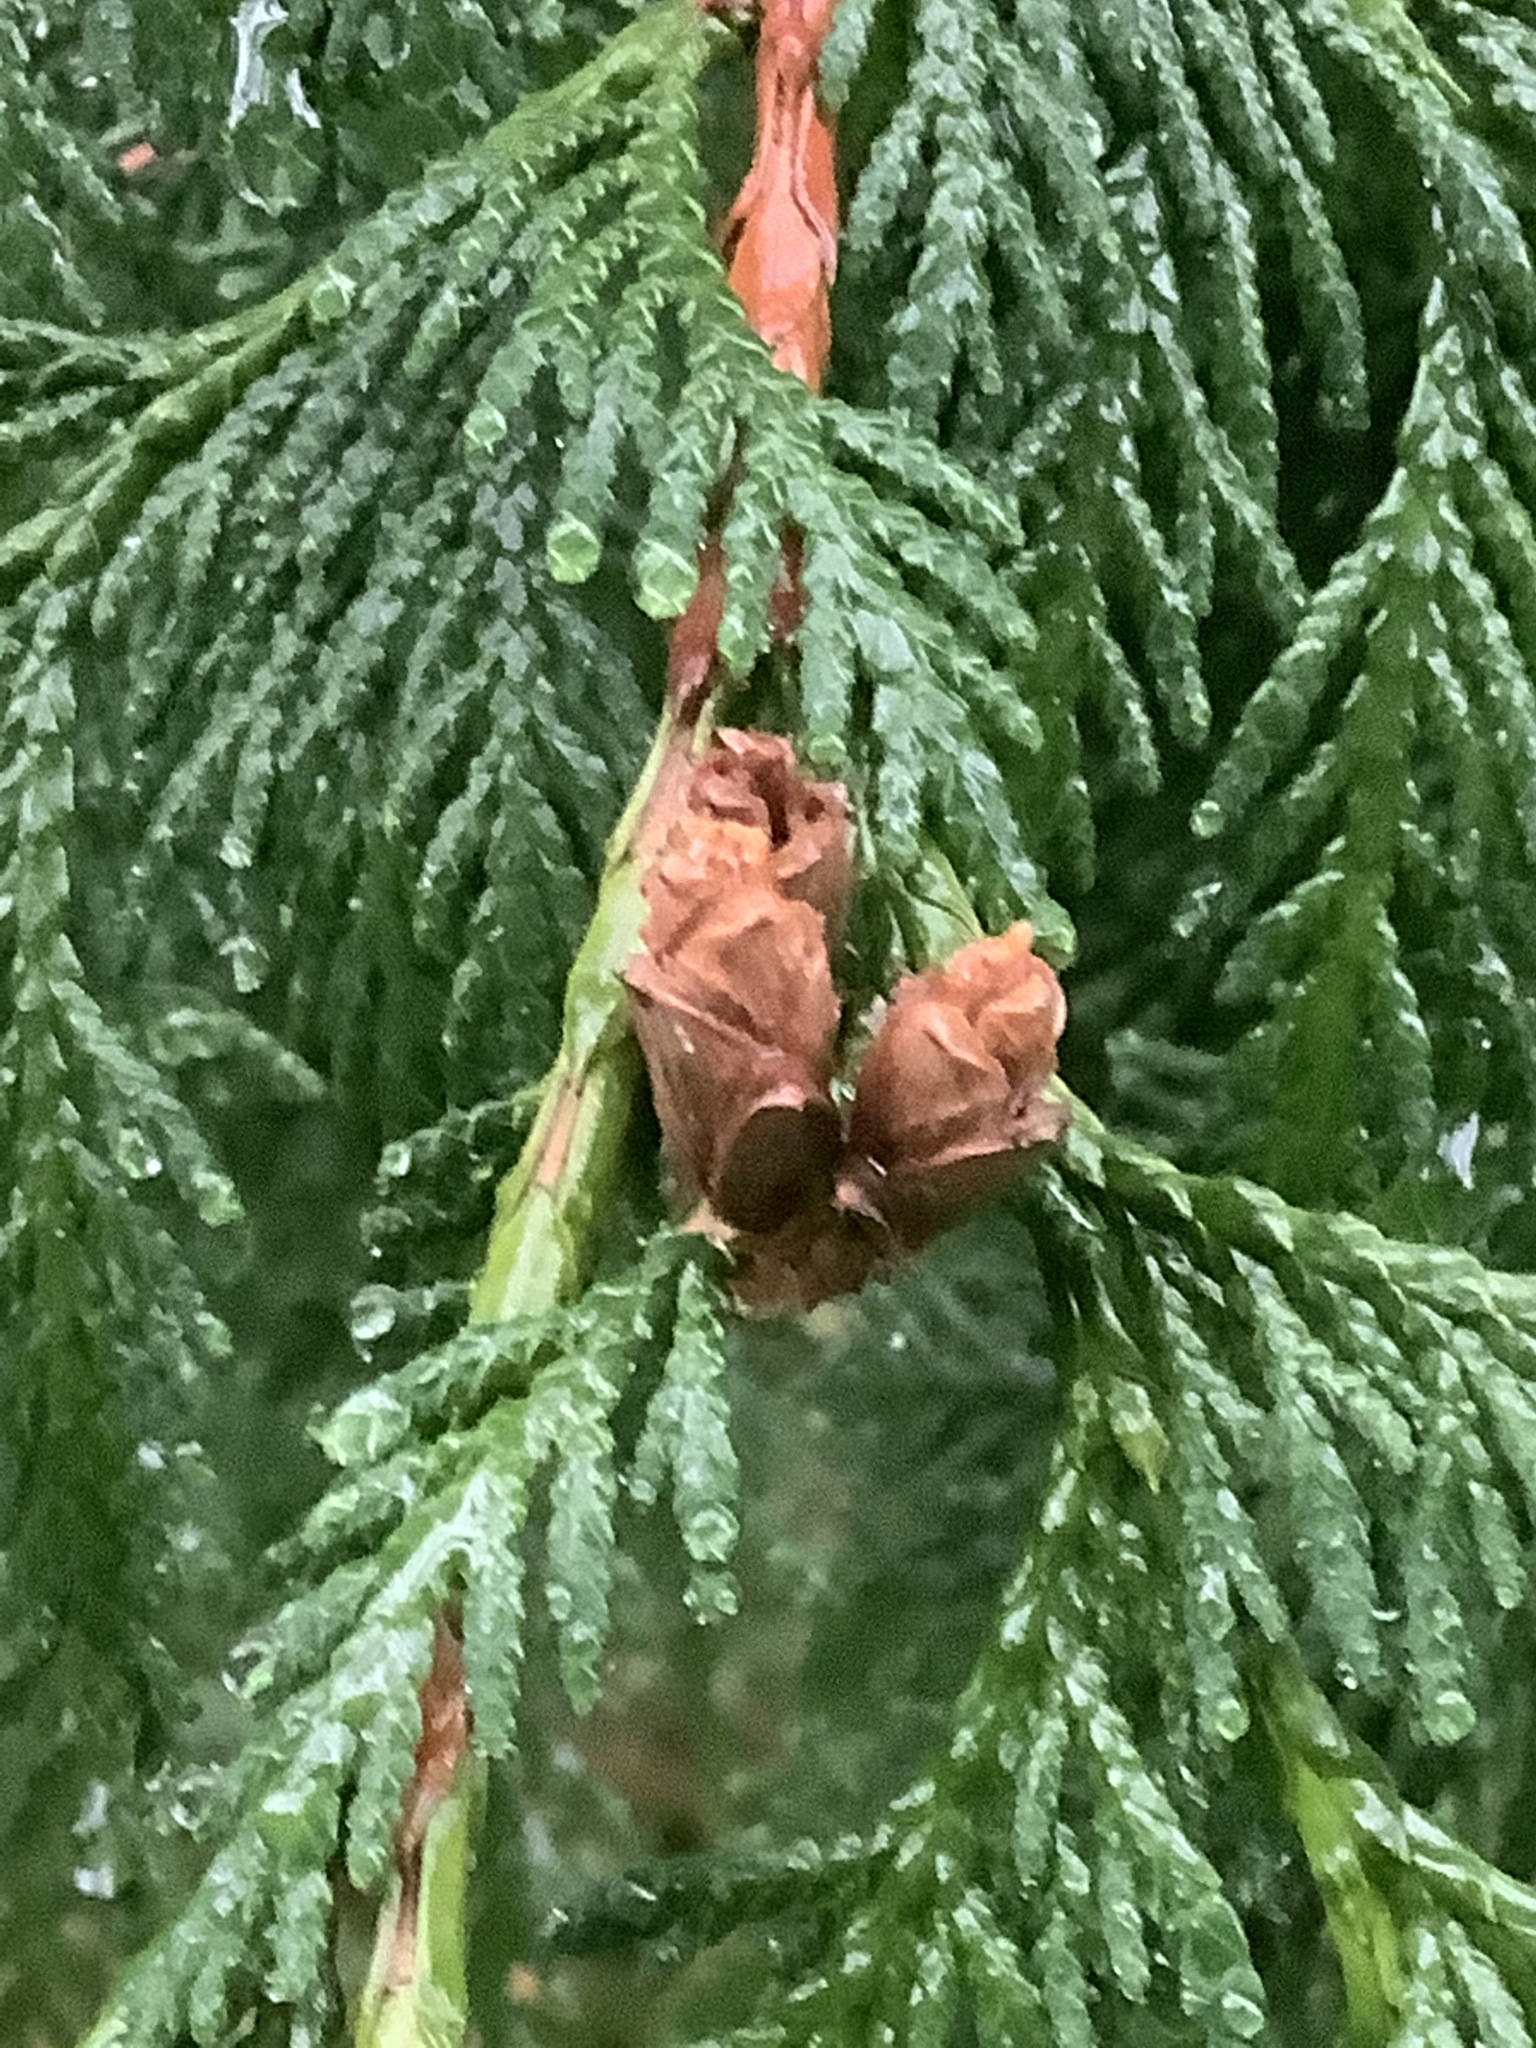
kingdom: Plantae
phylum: Tracheophyta
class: Pinopsida
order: Pinales
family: Cupressaceae
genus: Thuja
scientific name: Thuja plicata
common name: Western red-cedar
